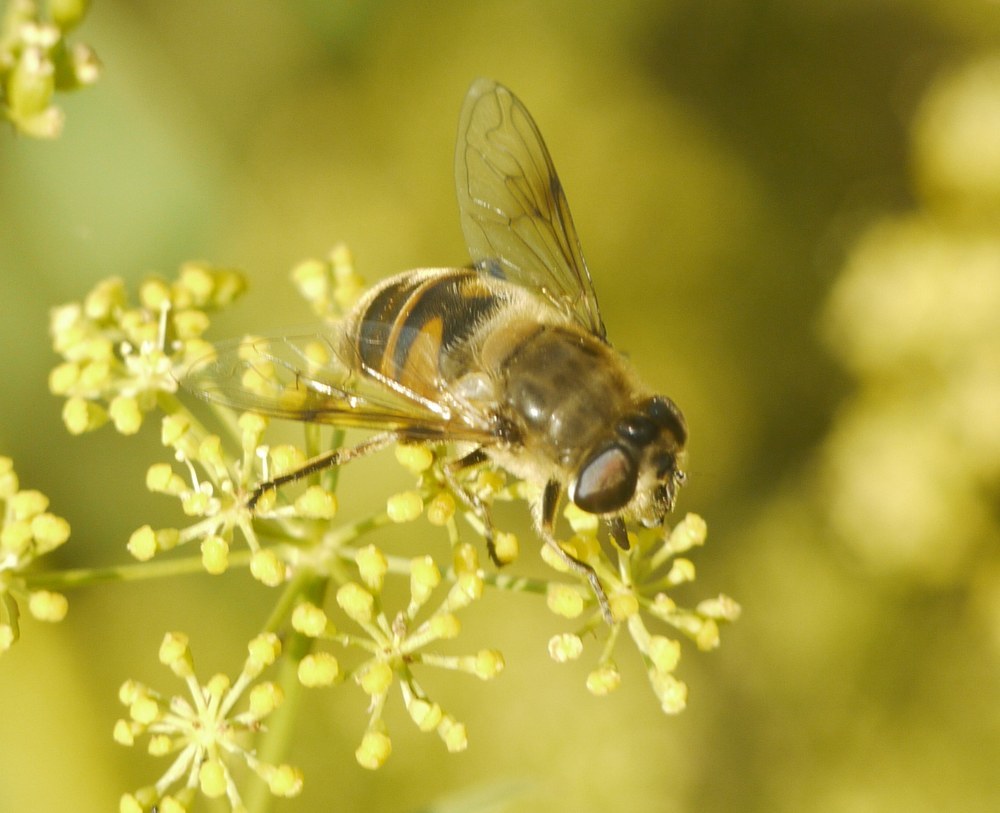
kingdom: Animalia
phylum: Arthropoda
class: Insecta
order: Diptera
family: Syrphidae
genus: Eristalis
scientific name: Eristalis tenax
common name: Drone fly
